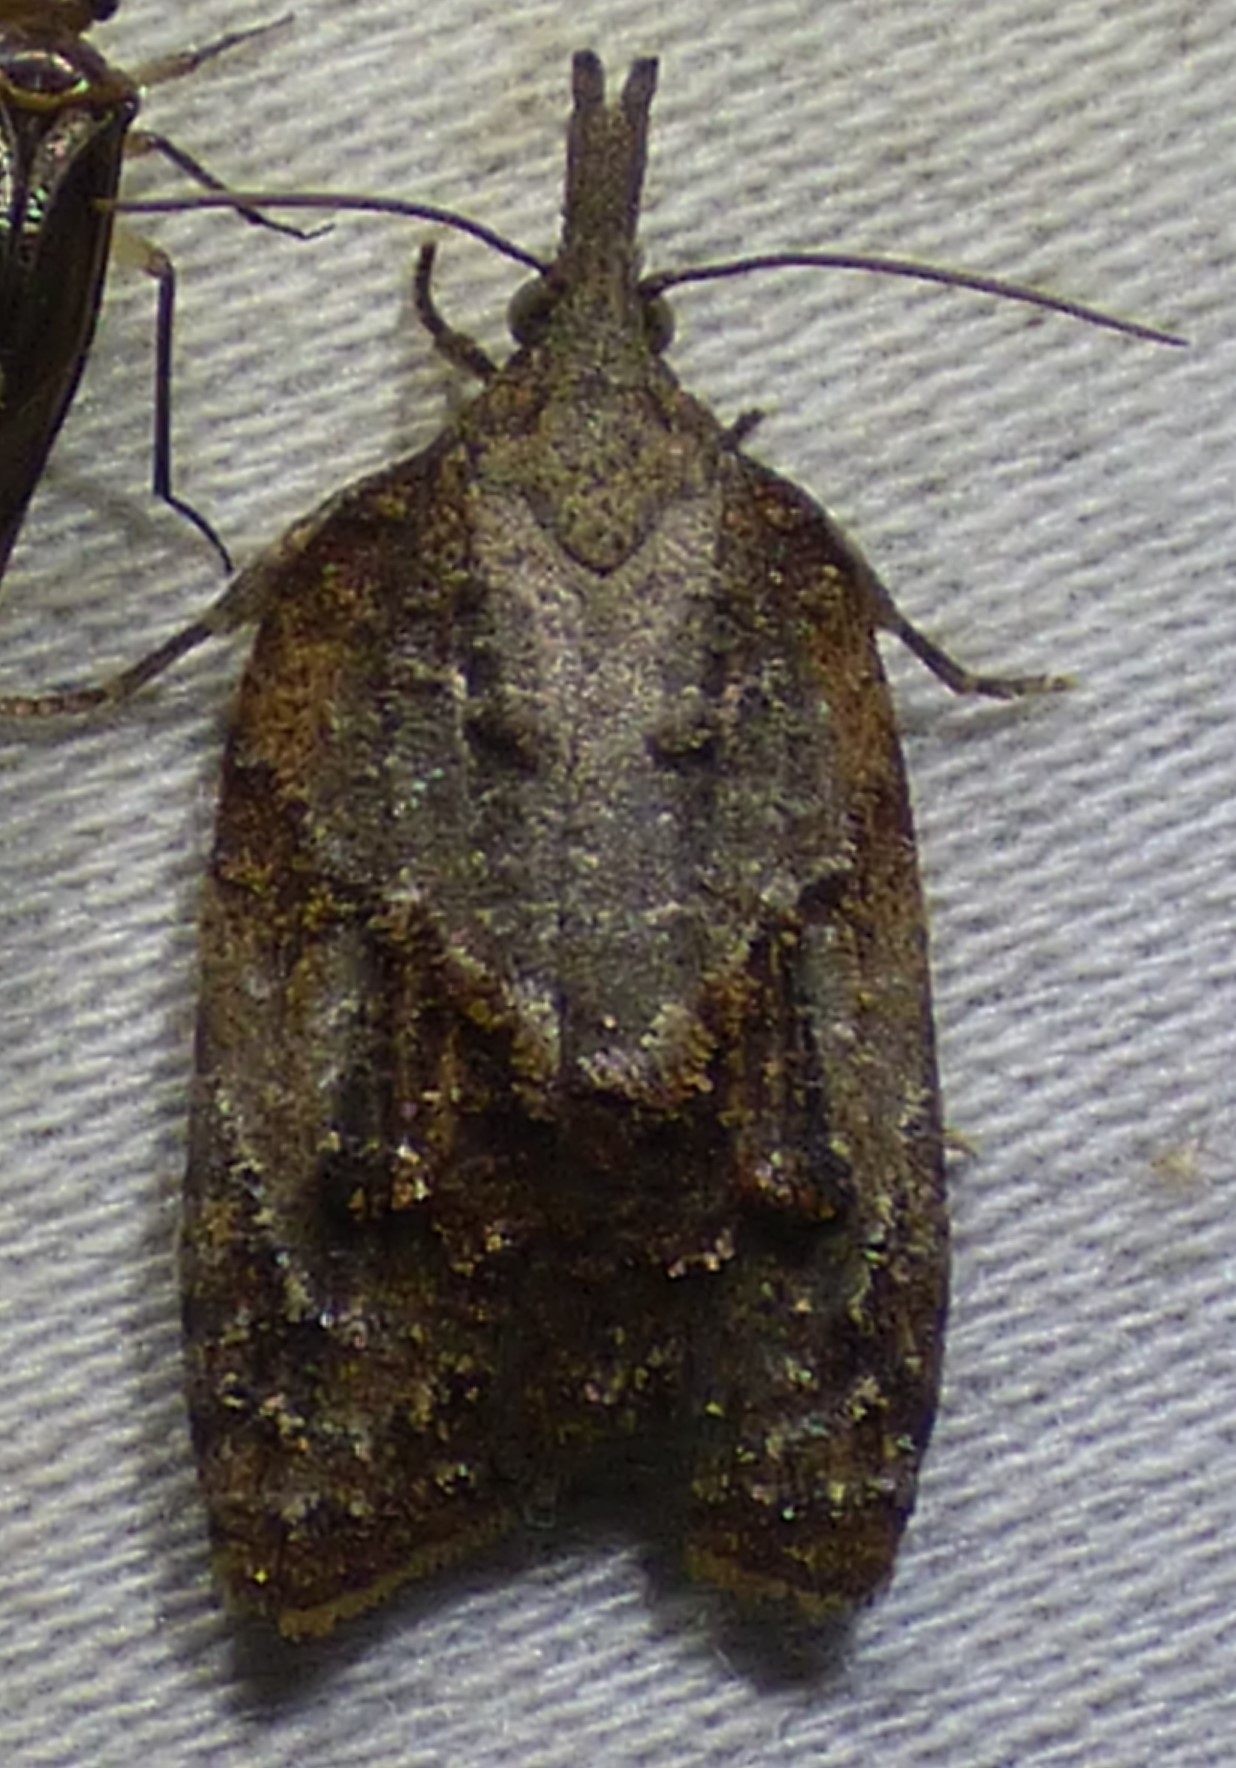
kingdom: Animalia
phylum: Arthropoda
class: Insecta
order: Lepidoptera
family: Tortricidae
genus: Platynota
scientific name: Platynota idaeusalis
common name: Tufted apple bud moth
